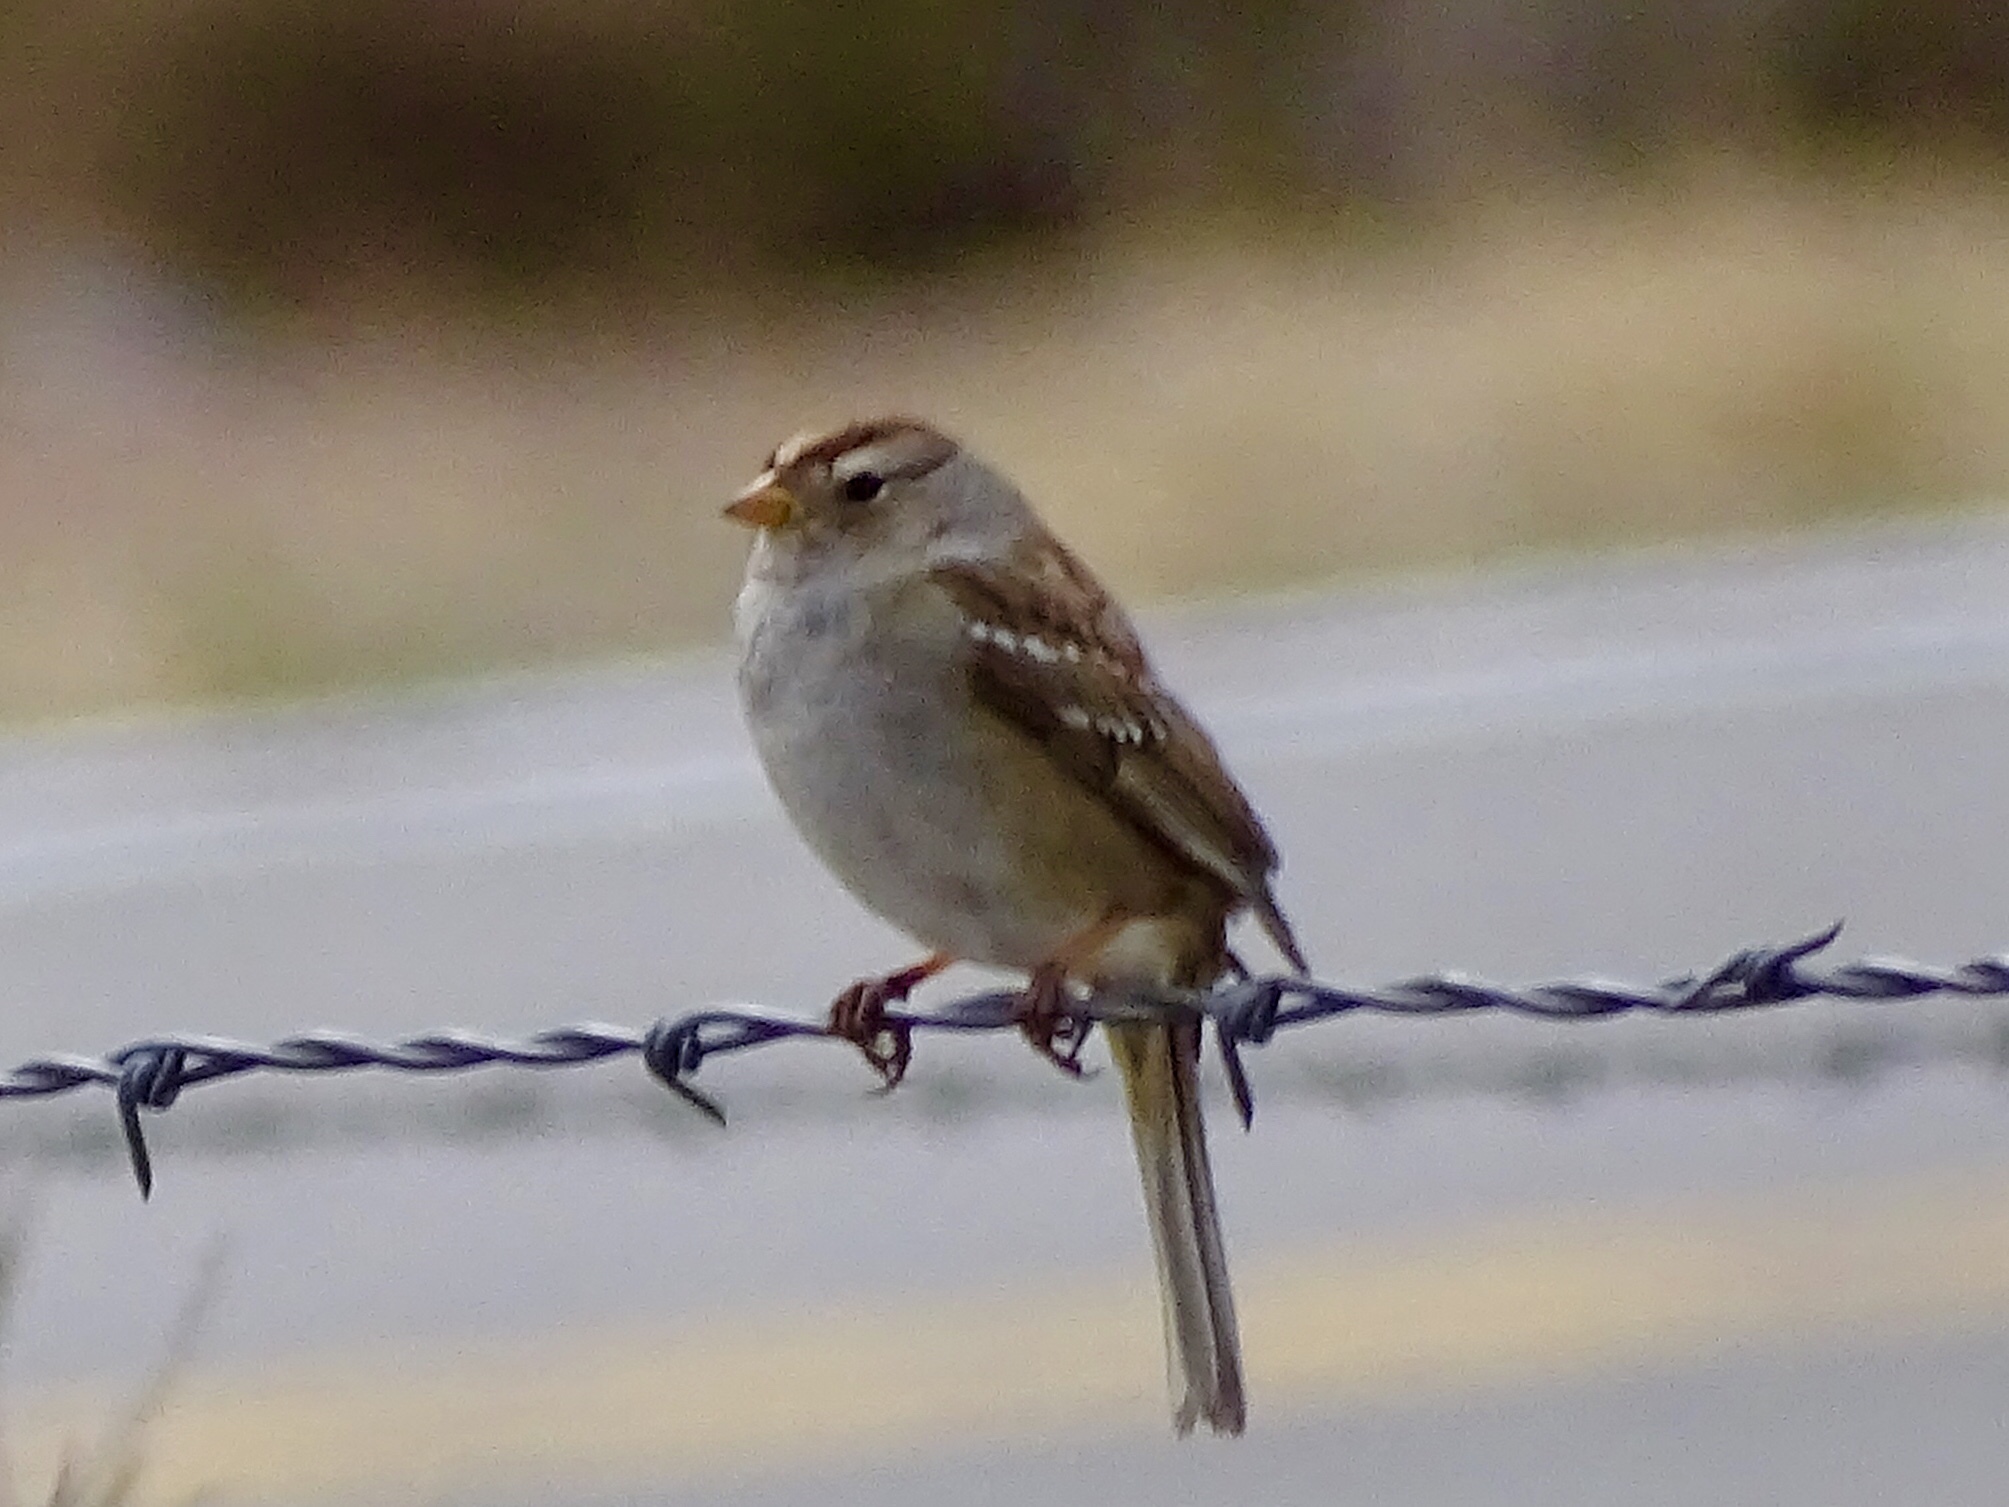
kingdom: Animalia
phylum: Chordata
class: Aves
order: Passeriformes
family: Passerellidae
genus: Zonotrichia
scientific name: Zonotrichia leucophrys
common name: White-crowned sparrow
